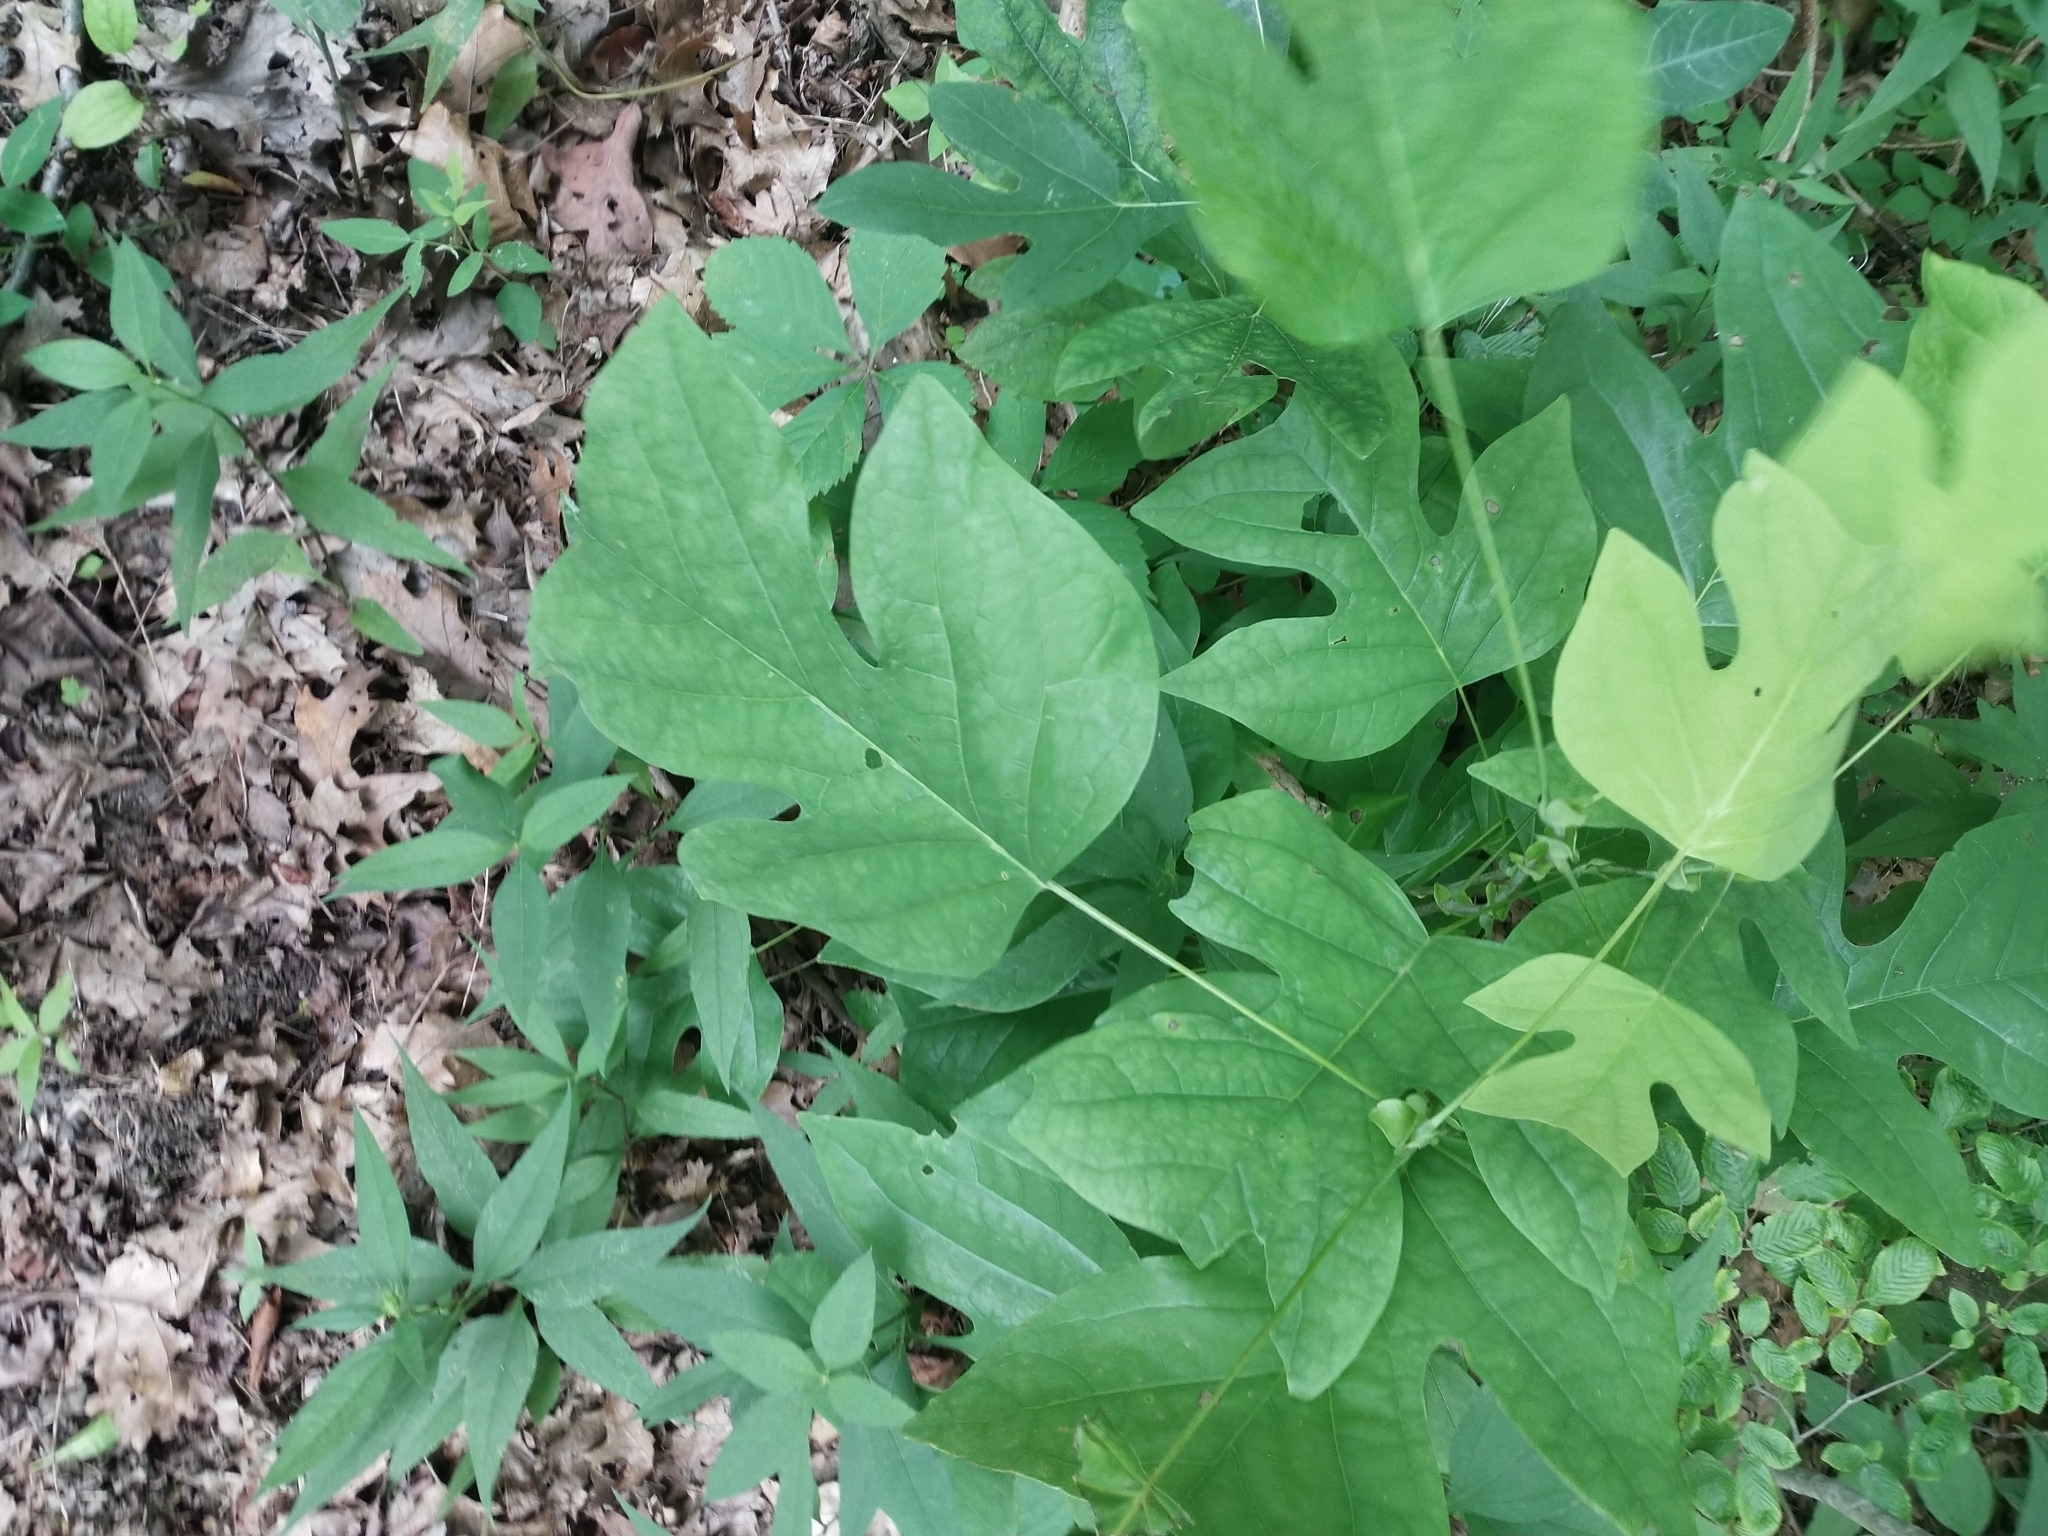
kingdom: Plantae
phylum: Tracheophyta
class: Magnoliopsida
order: Magnoliales
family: Magnoliaceae
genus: Liriodendron
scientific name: Liriodendron tulipifera
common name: Tulip tree
